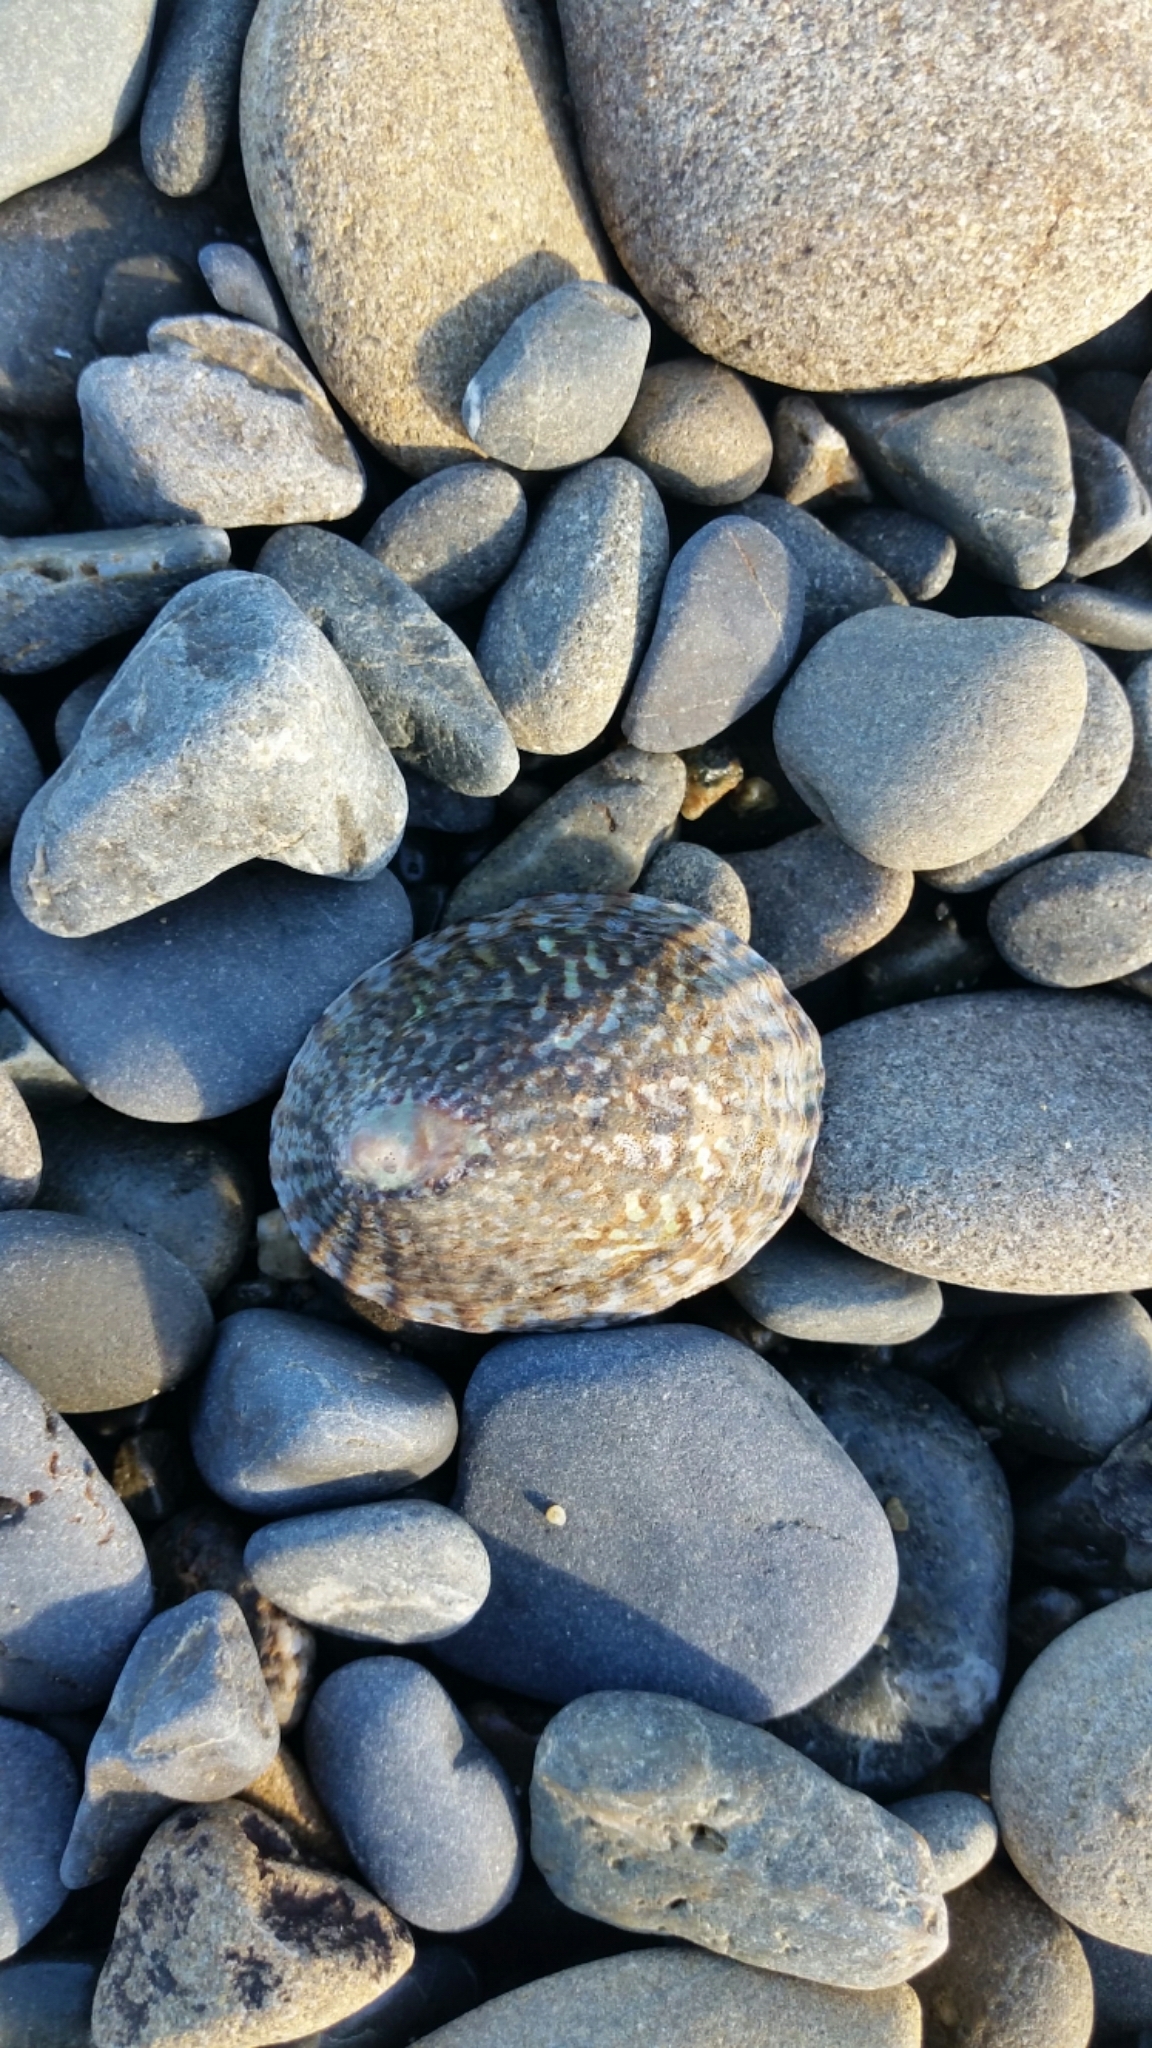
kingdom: Animalia
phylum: Mollusca
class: Gastropoda
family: Nacellidae
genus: Cellana
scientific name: Cellana denticulata
